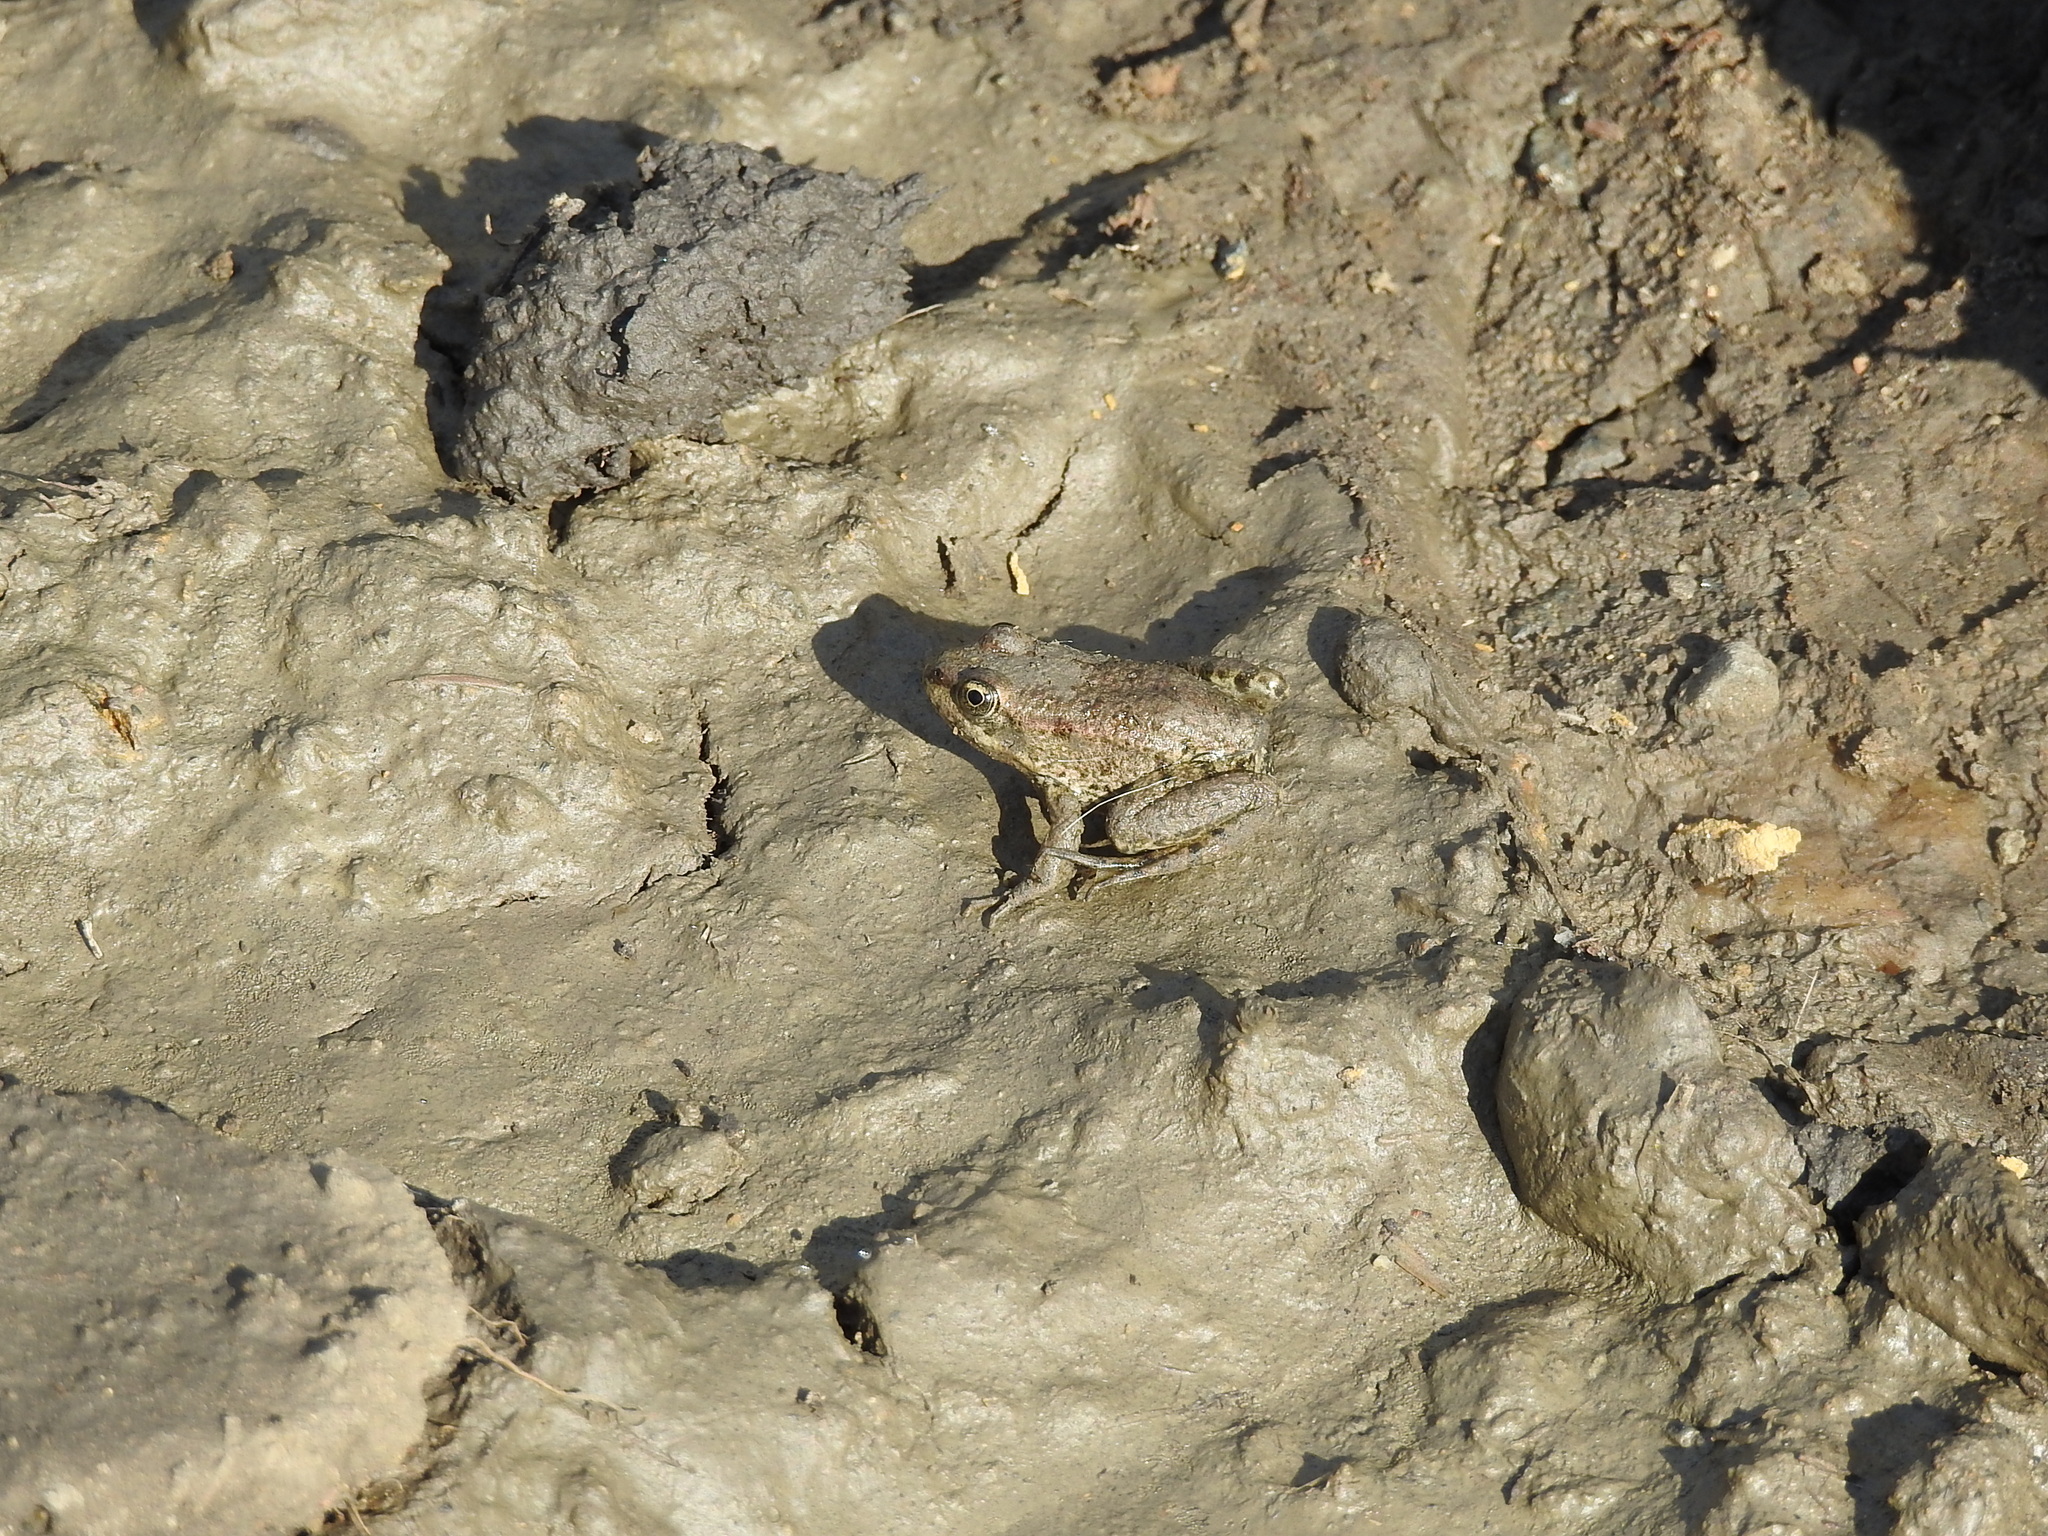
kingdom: Animalia
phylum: Chordata
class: Amphibia
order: Anura
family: Ranidae
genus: Pelophylax
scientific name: Pelophylax ridibundus
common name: Marsh frog
